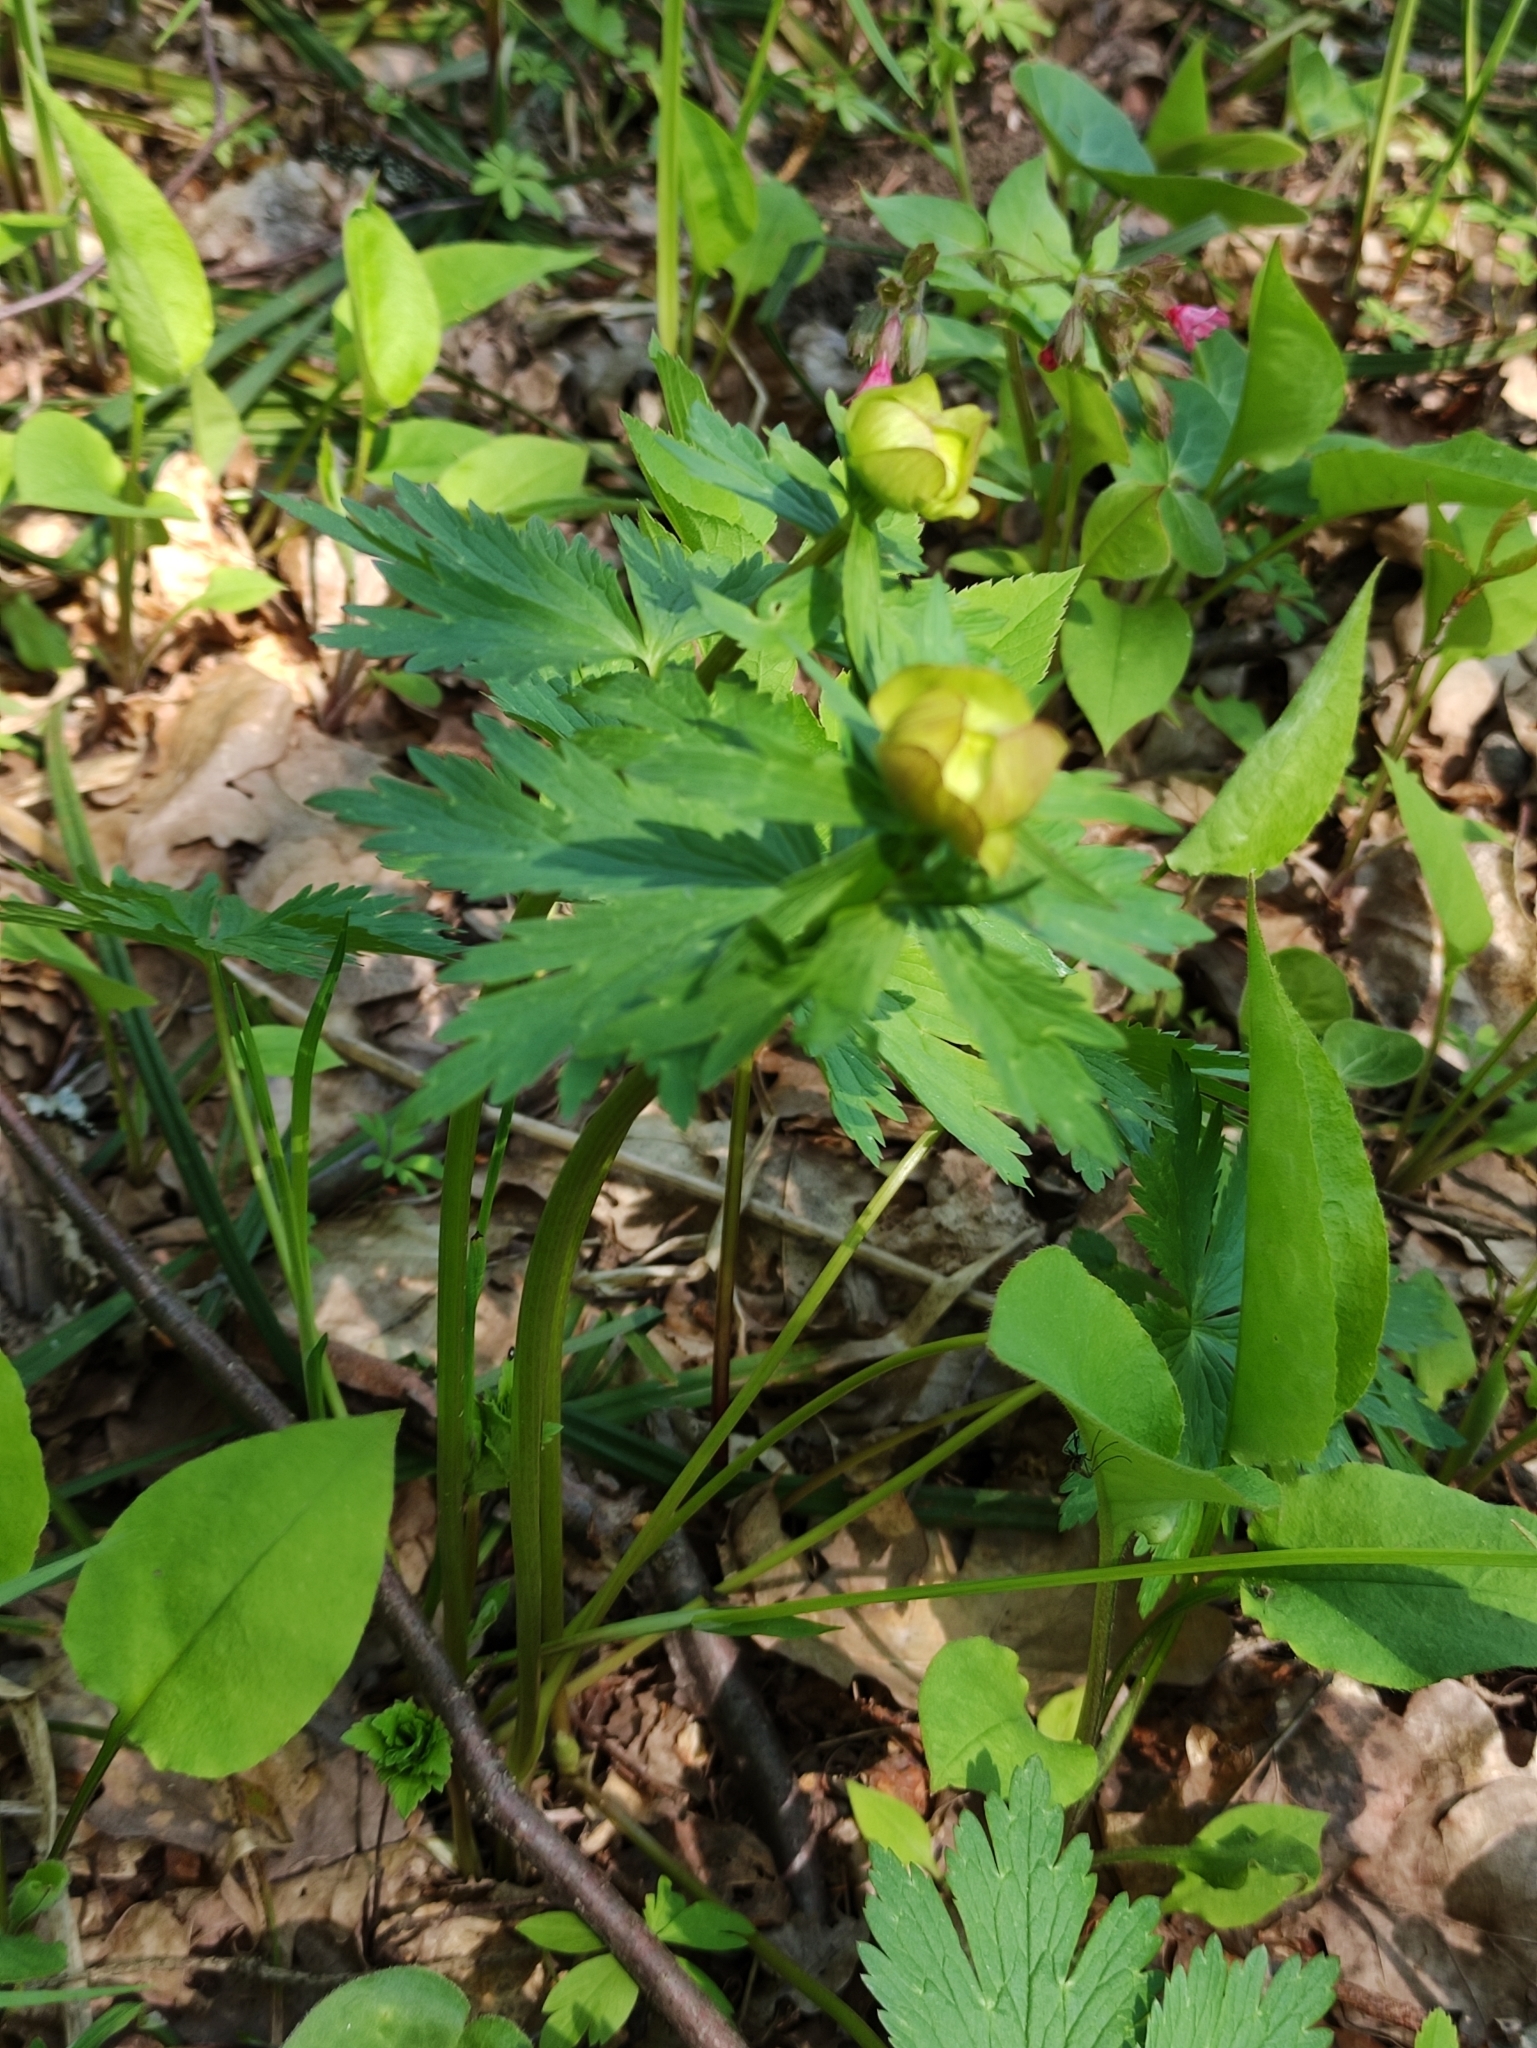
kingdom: Plantae
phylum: Tracheophyta
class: Magnoliopsida
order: Ranunculales
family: Ranunculaceae
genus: Trollius
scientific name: Trollius europaeus
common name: European globeflower
